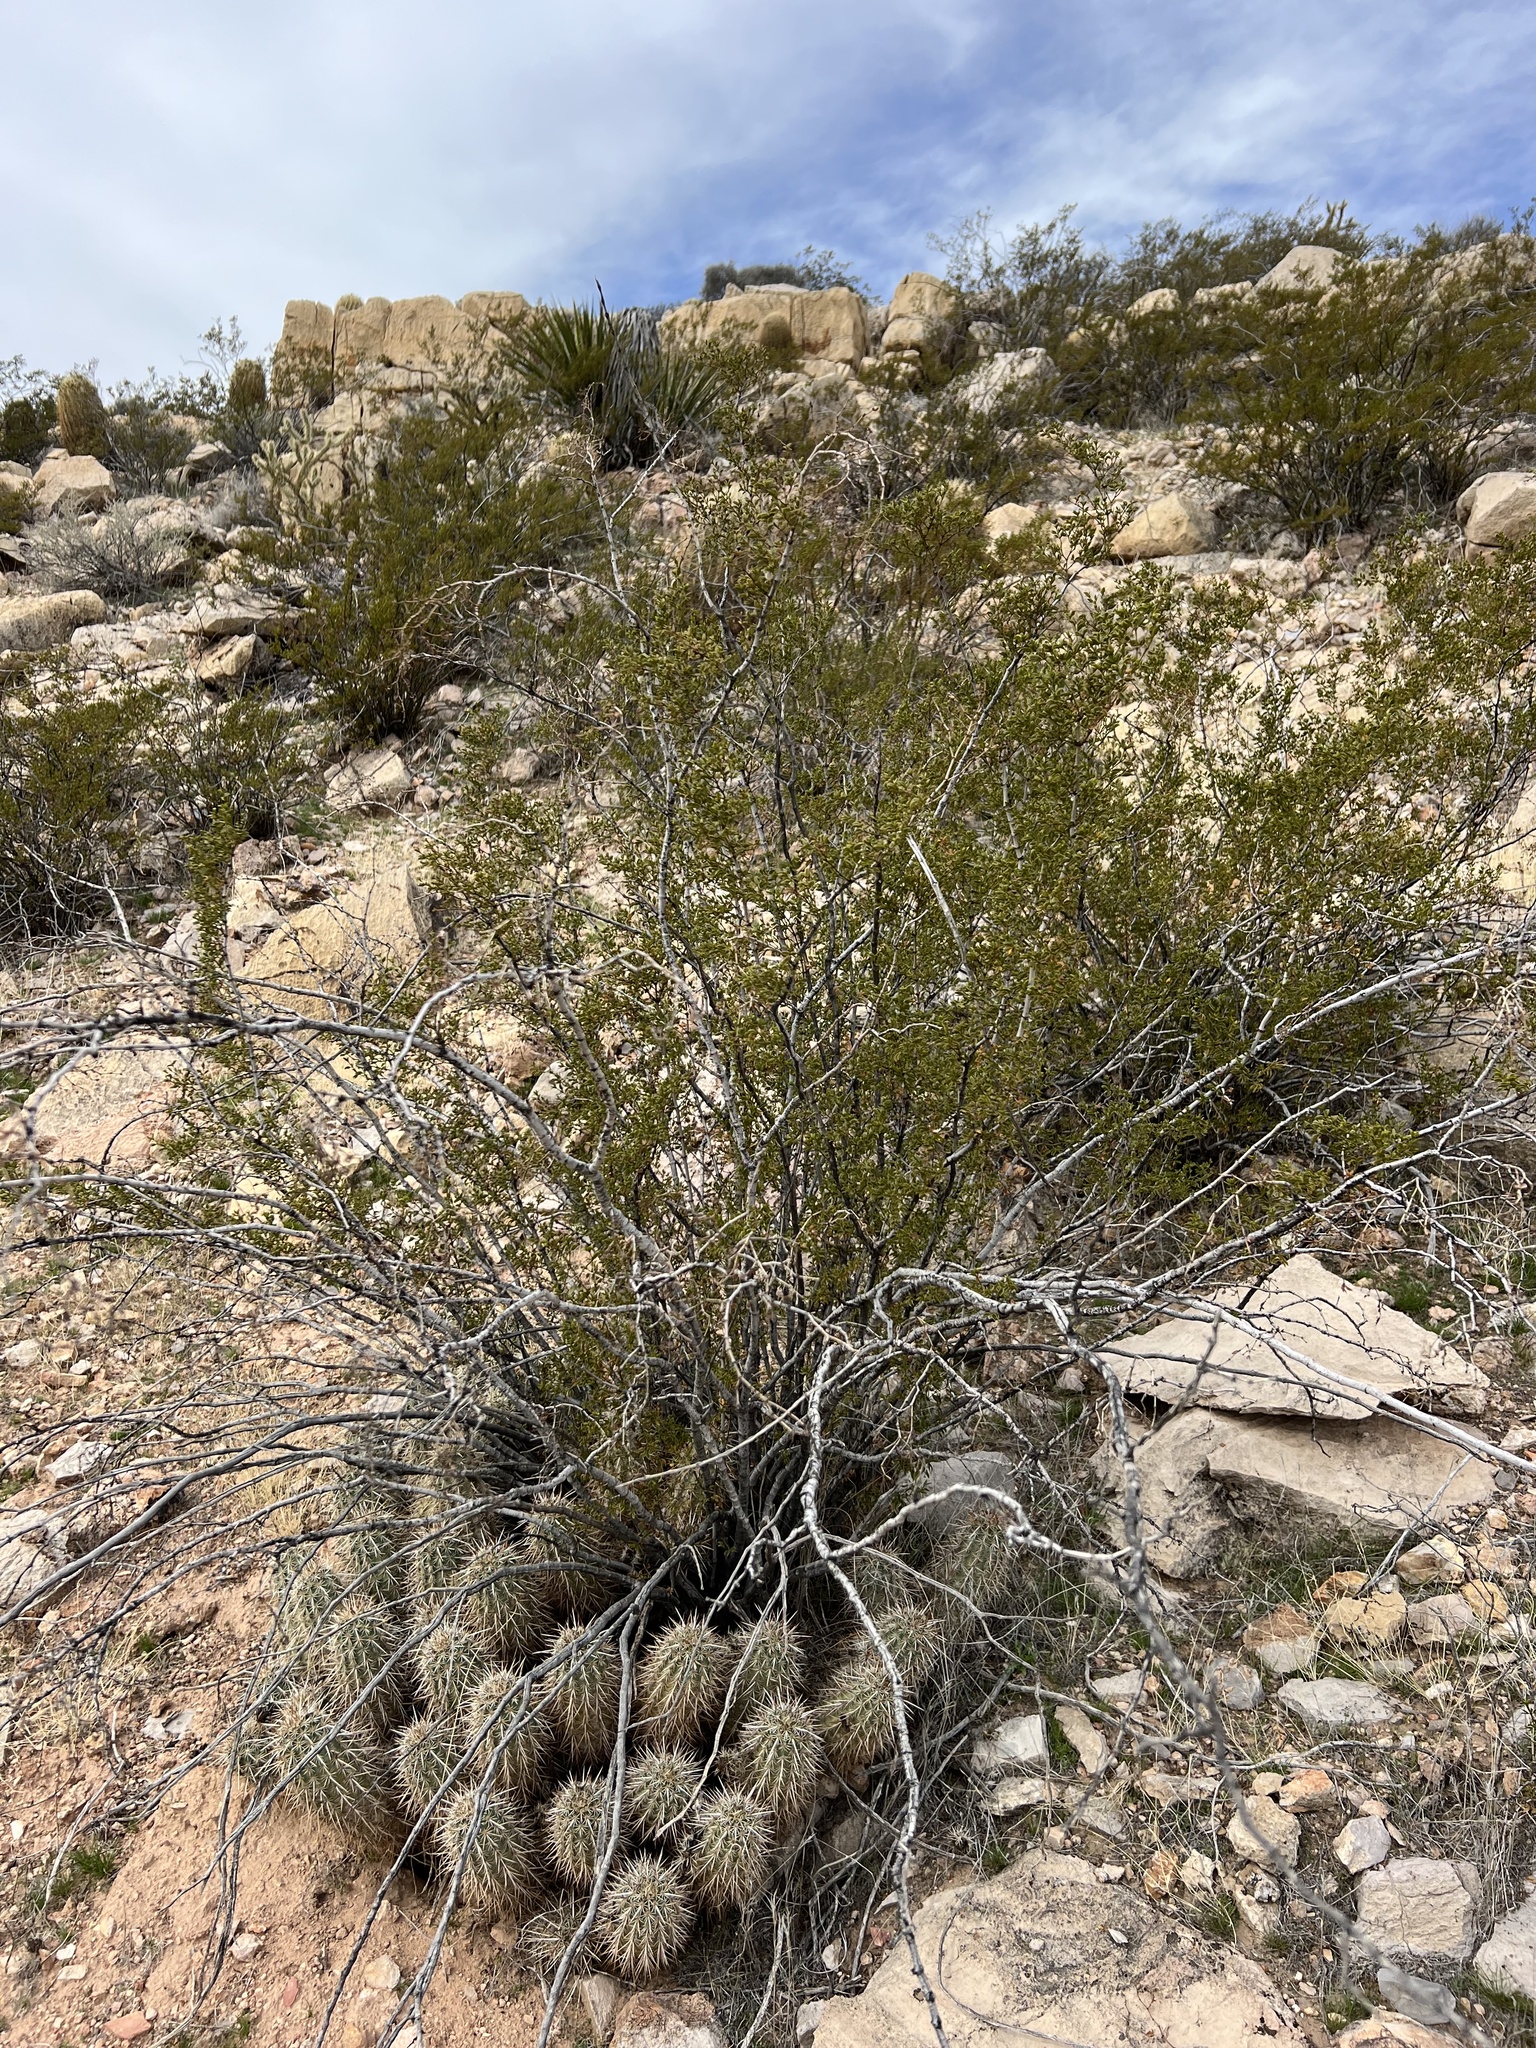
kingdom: Plantae
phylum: Tracheophyta
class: Magnoliopsida
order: Zygophyllales
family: Zygophyllaceae
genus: Larrea
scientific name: Larrea tridentata
